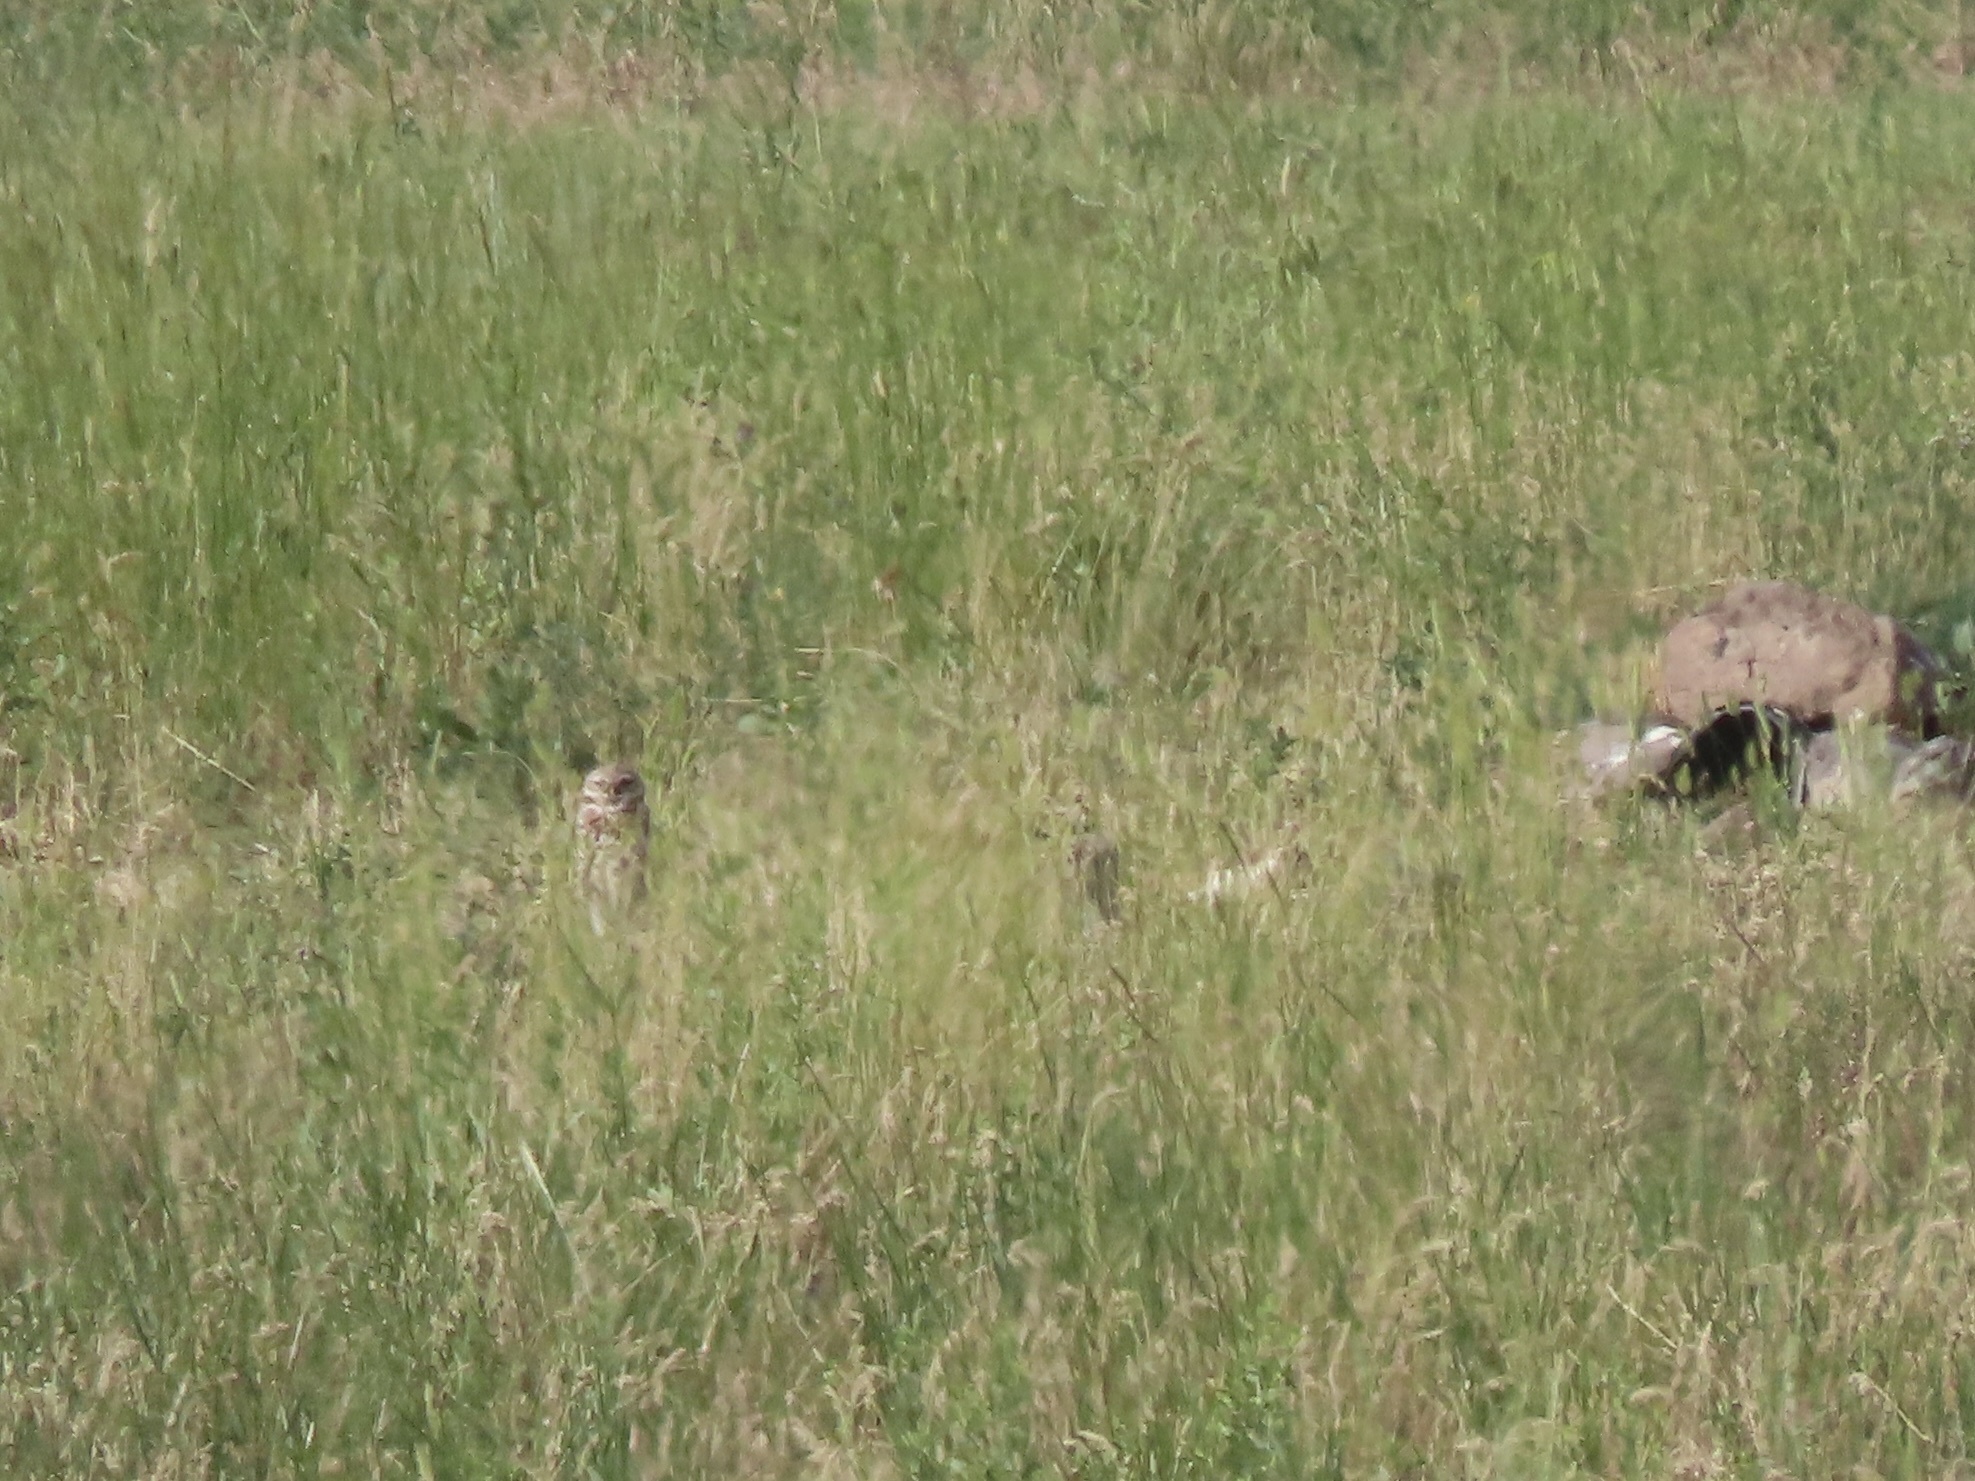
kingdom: Animalia
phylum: Chordata
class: Aves
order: Strigiformes
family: Strigidae
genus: Athene
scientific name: Athene cunicularia
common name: Burrowing owl
